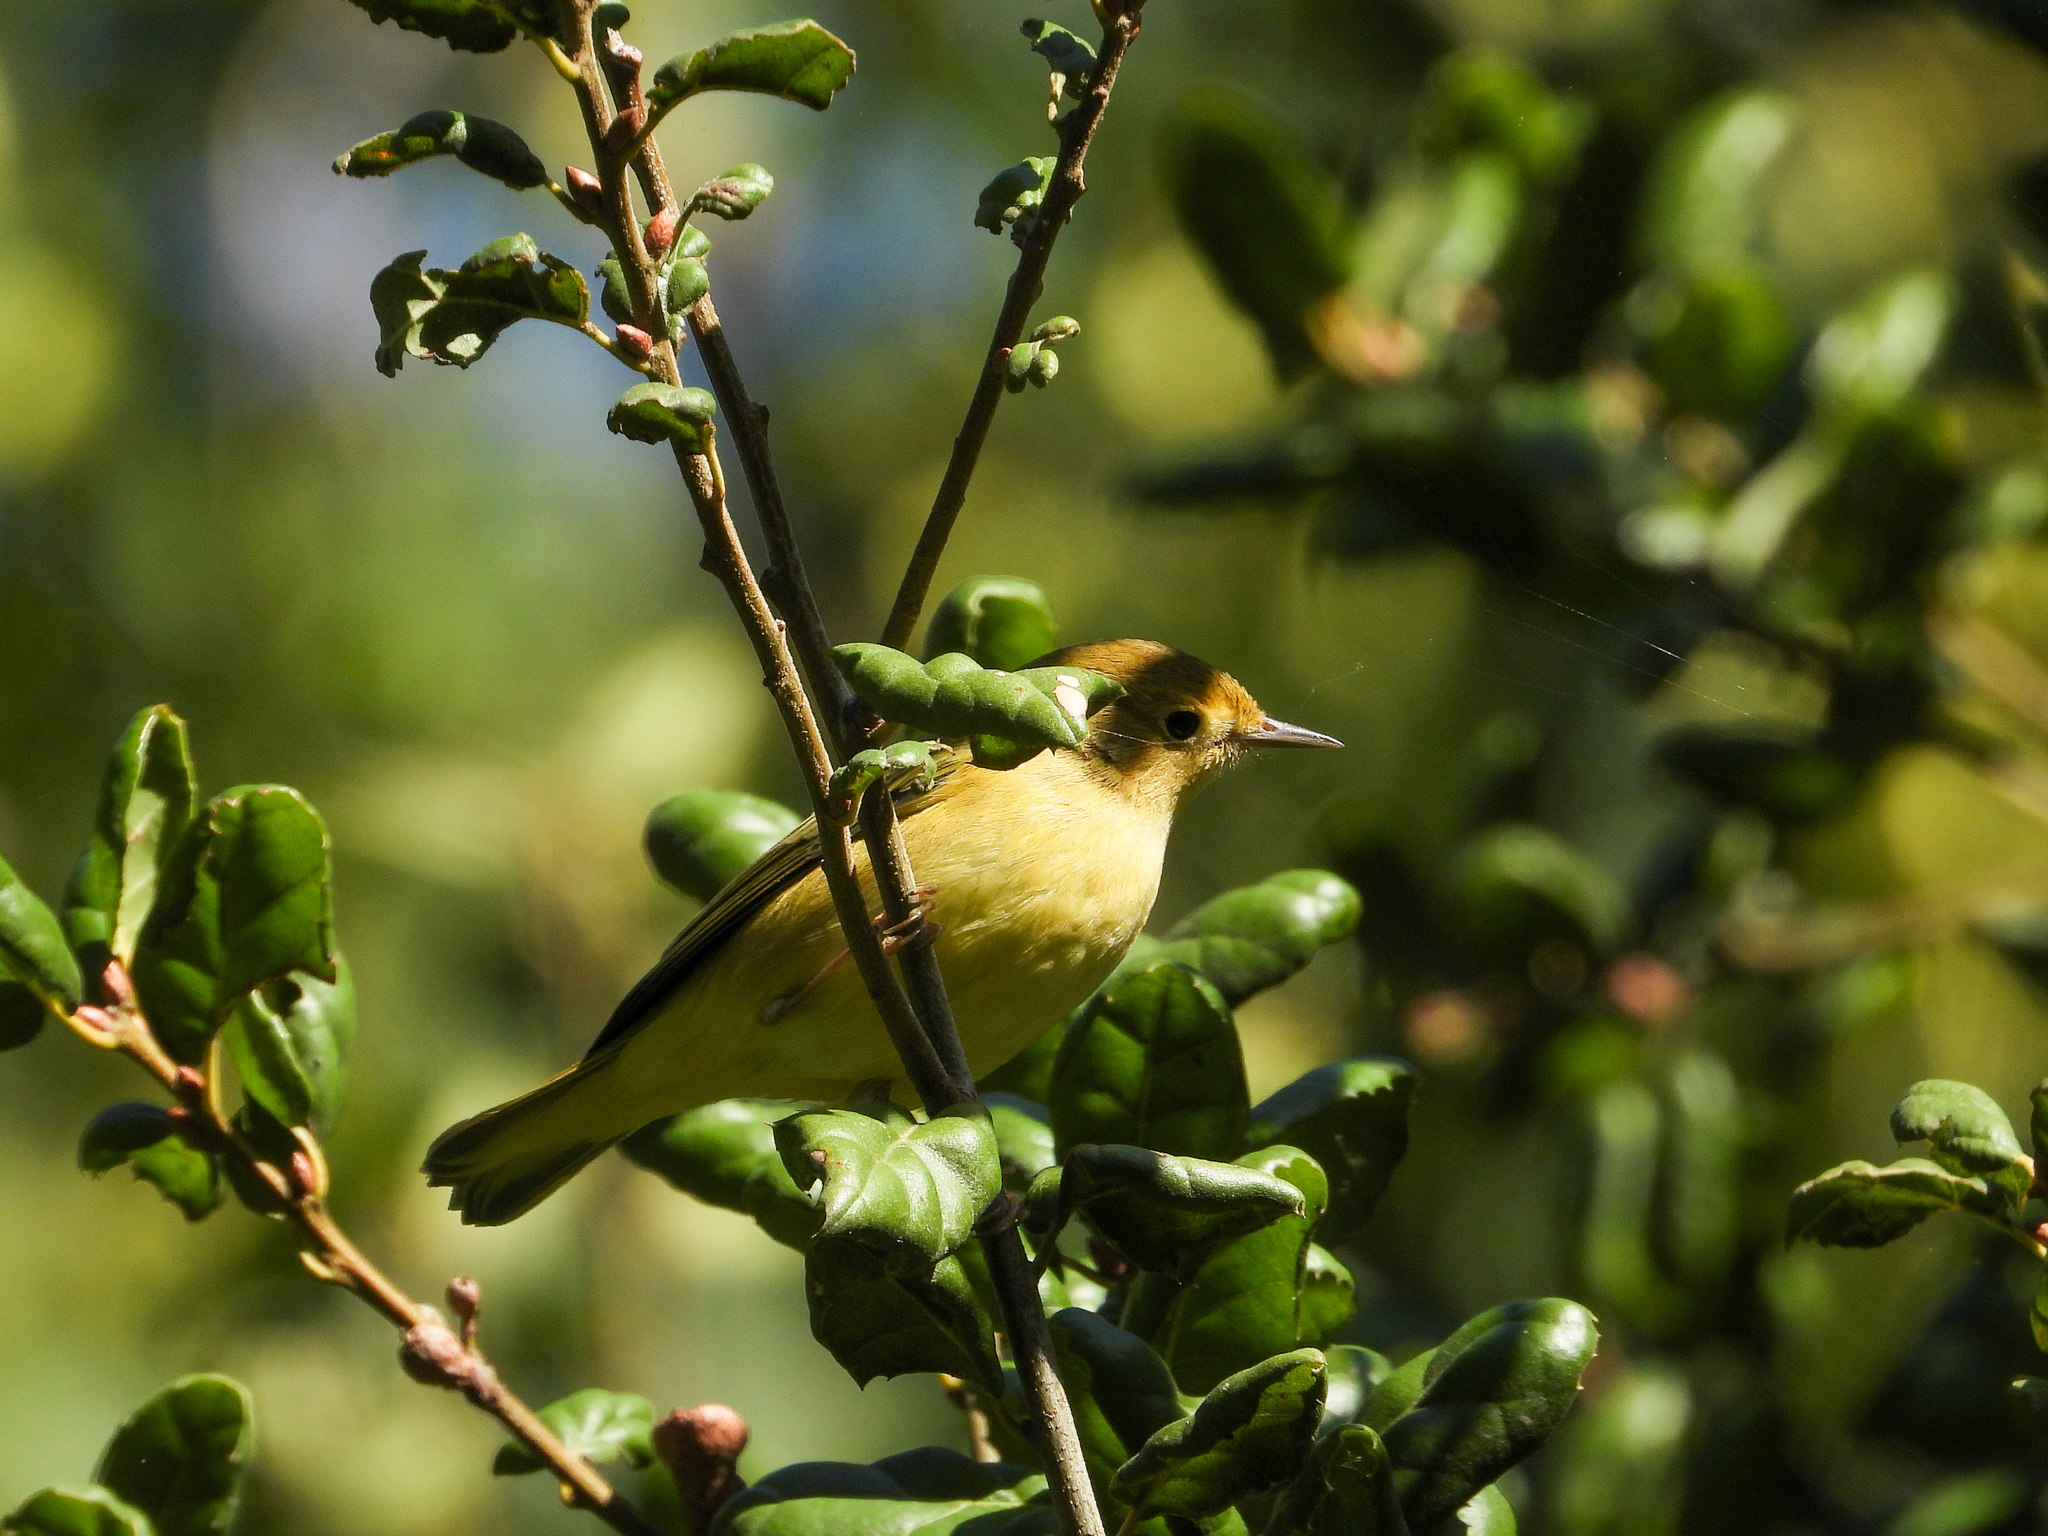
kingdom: Animalia
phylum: Chordata
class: Aves
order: Passeriformes
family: Parulidae
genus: Setophaga
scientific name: Setophaga petechia
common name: Yellow warbler
